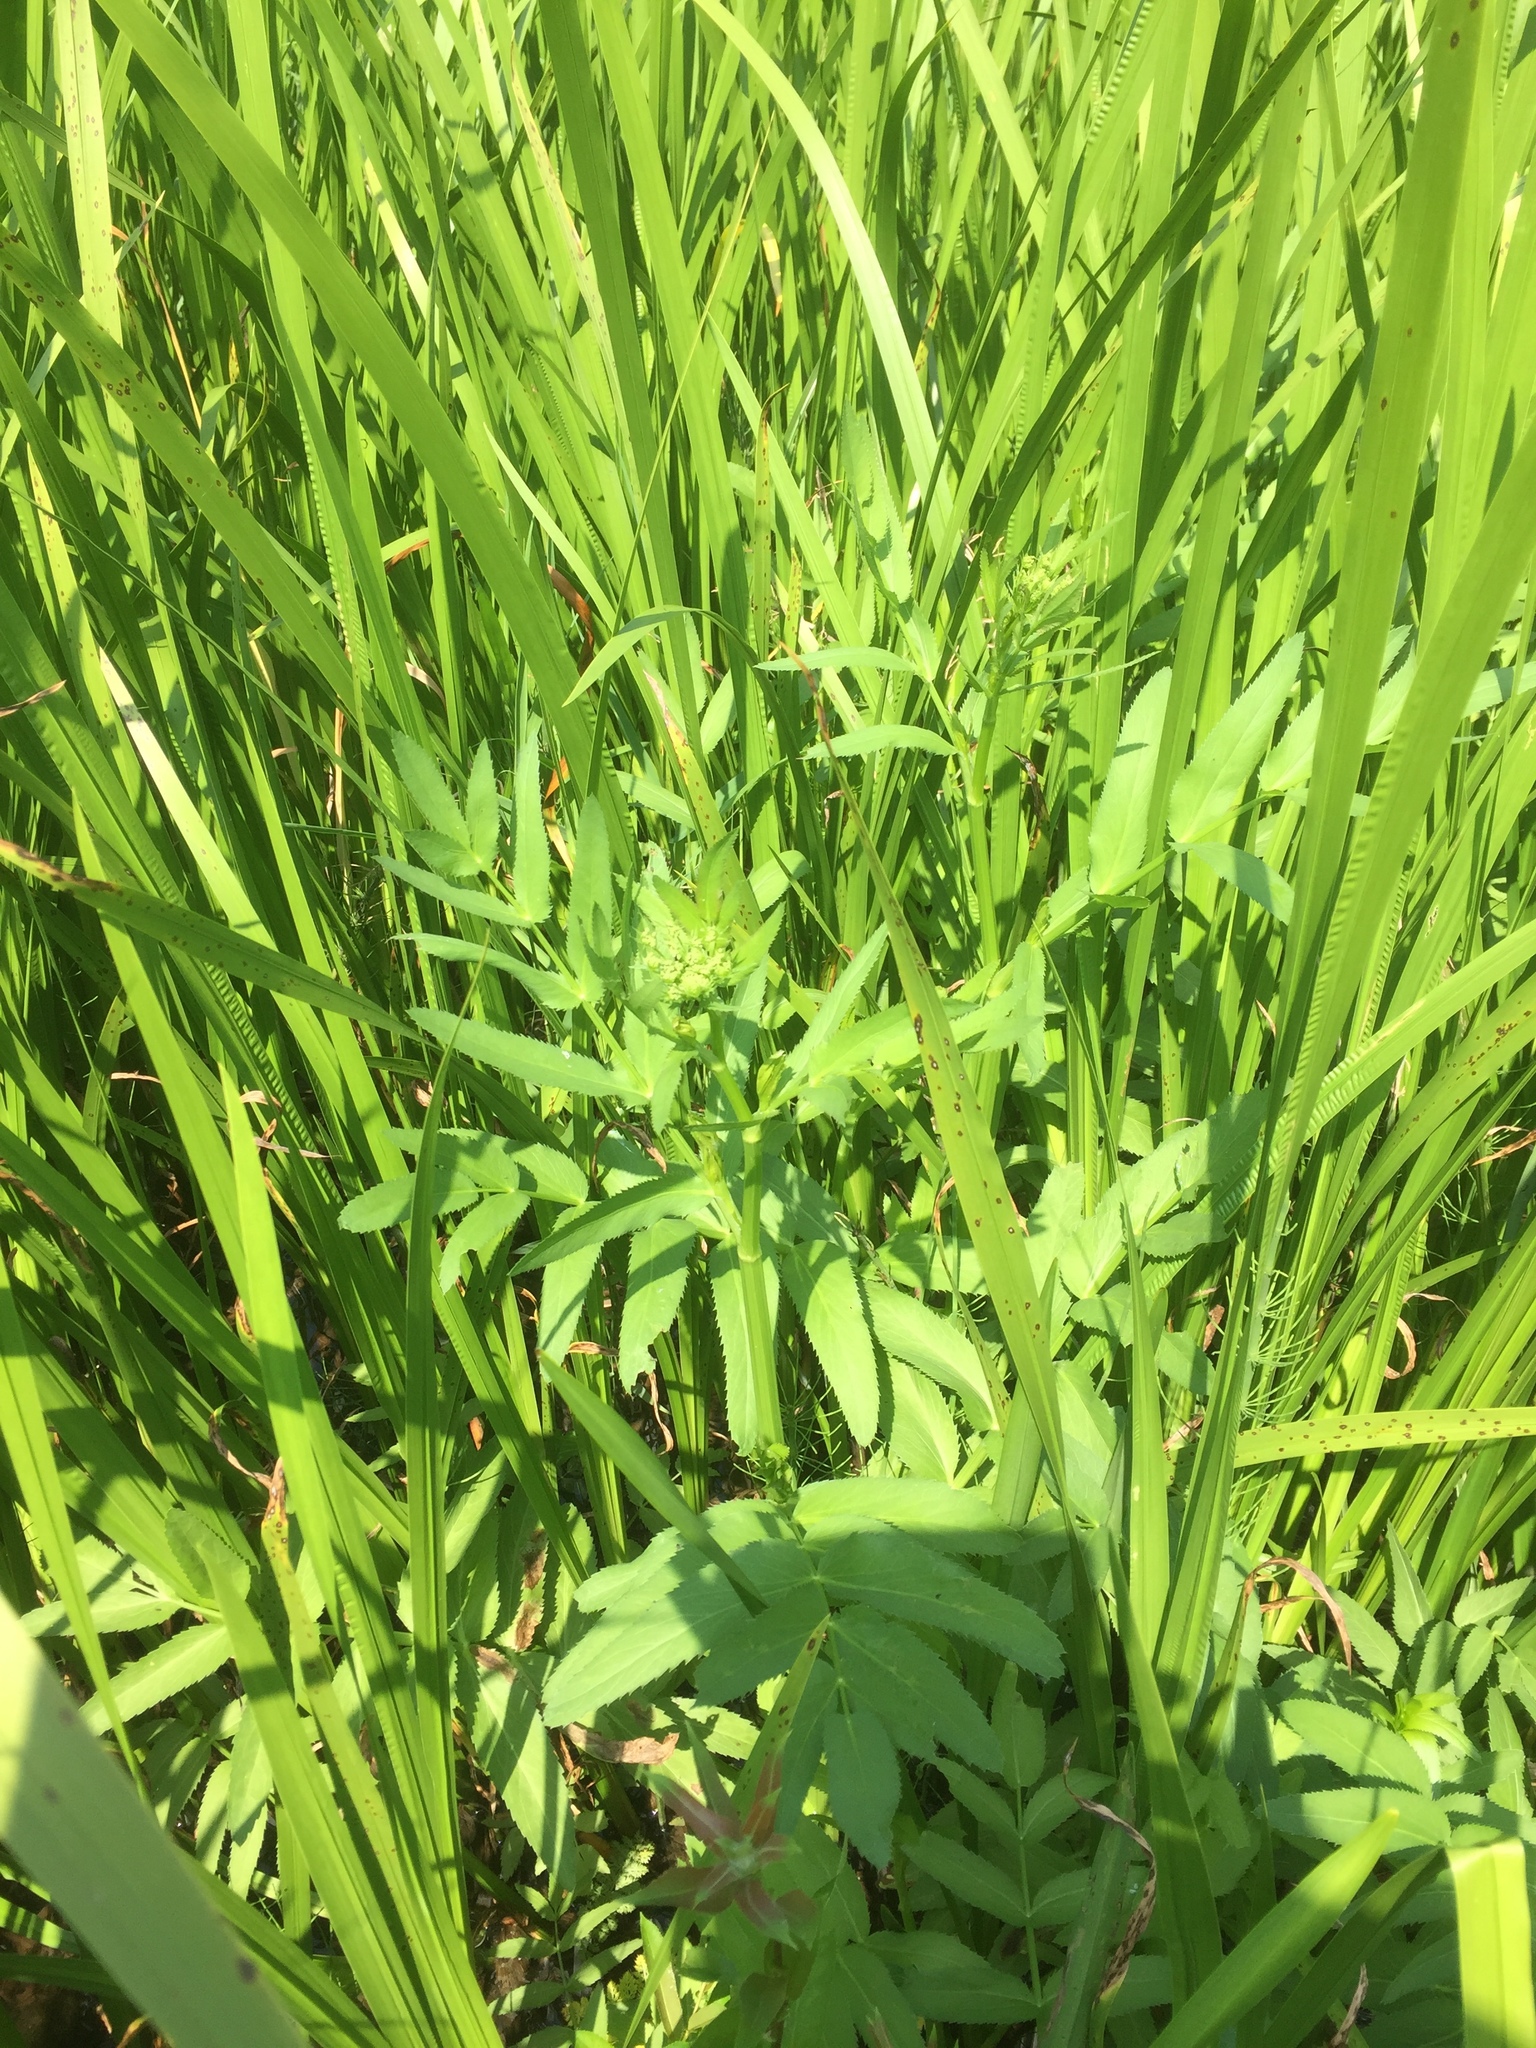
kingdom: Plantae
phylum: Tracheophyta
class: Magnoliopsida
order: Apiales
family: Apiaceae
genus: Sium
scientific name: Sium latifolium
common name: Greater water-parsnip
